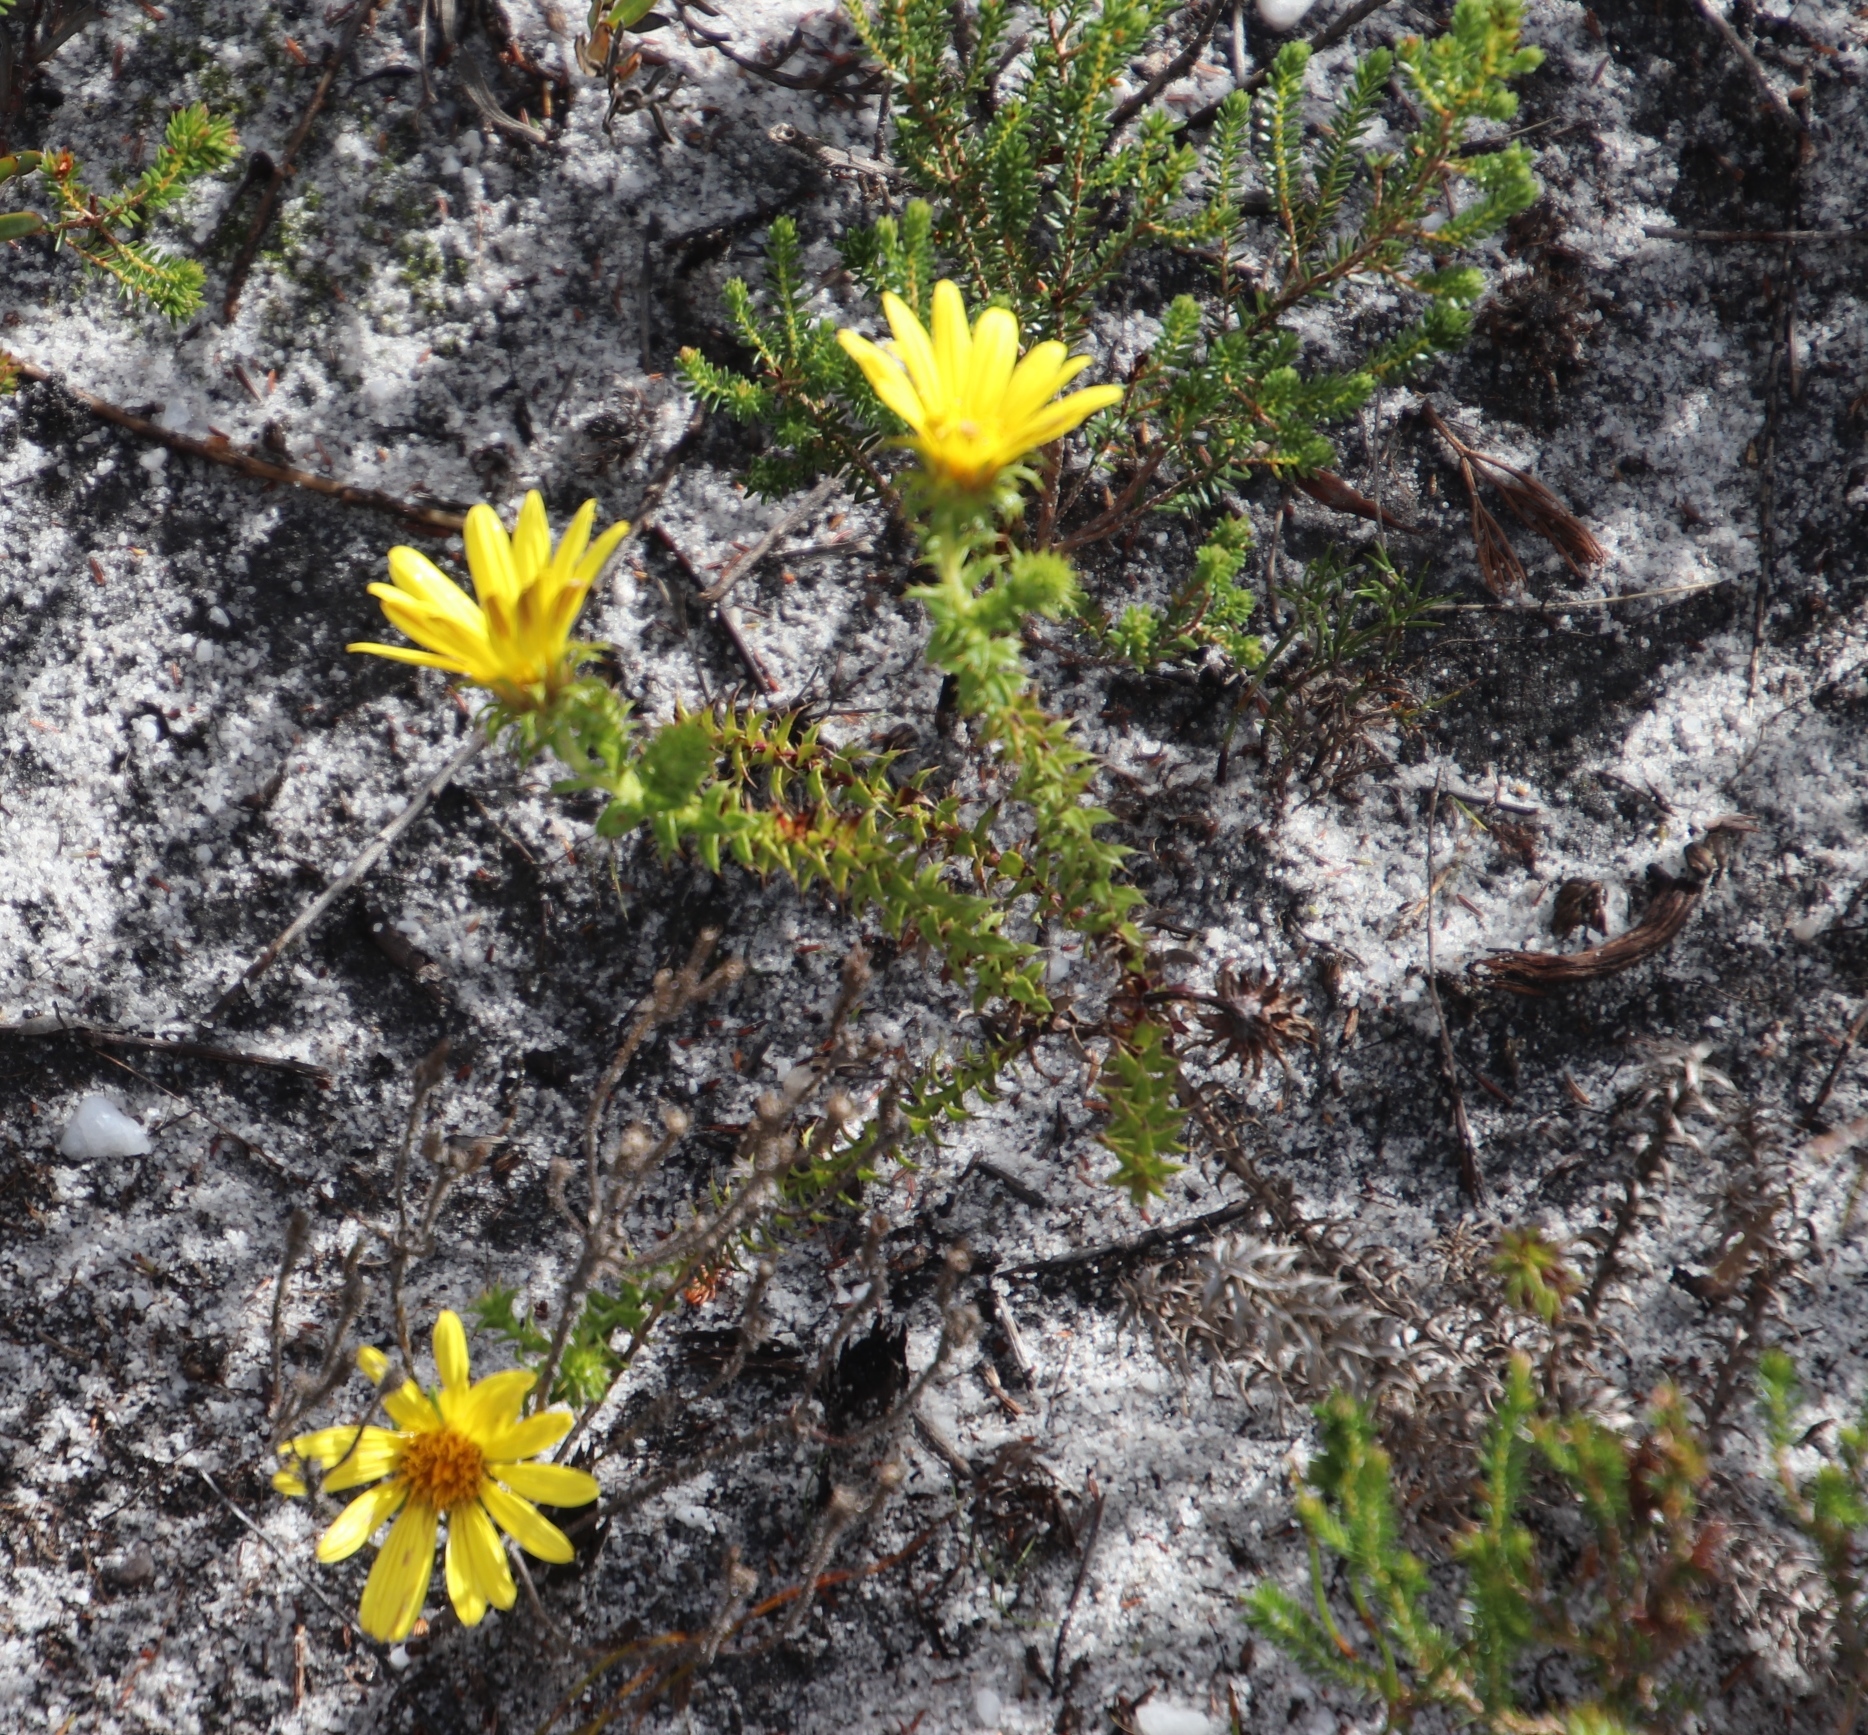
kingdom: Plantae
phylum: Tracheophyta
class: Magnoliopsida
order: Asterales
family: Asteraceae
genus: Cullumia
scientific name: Cullumia setosa
